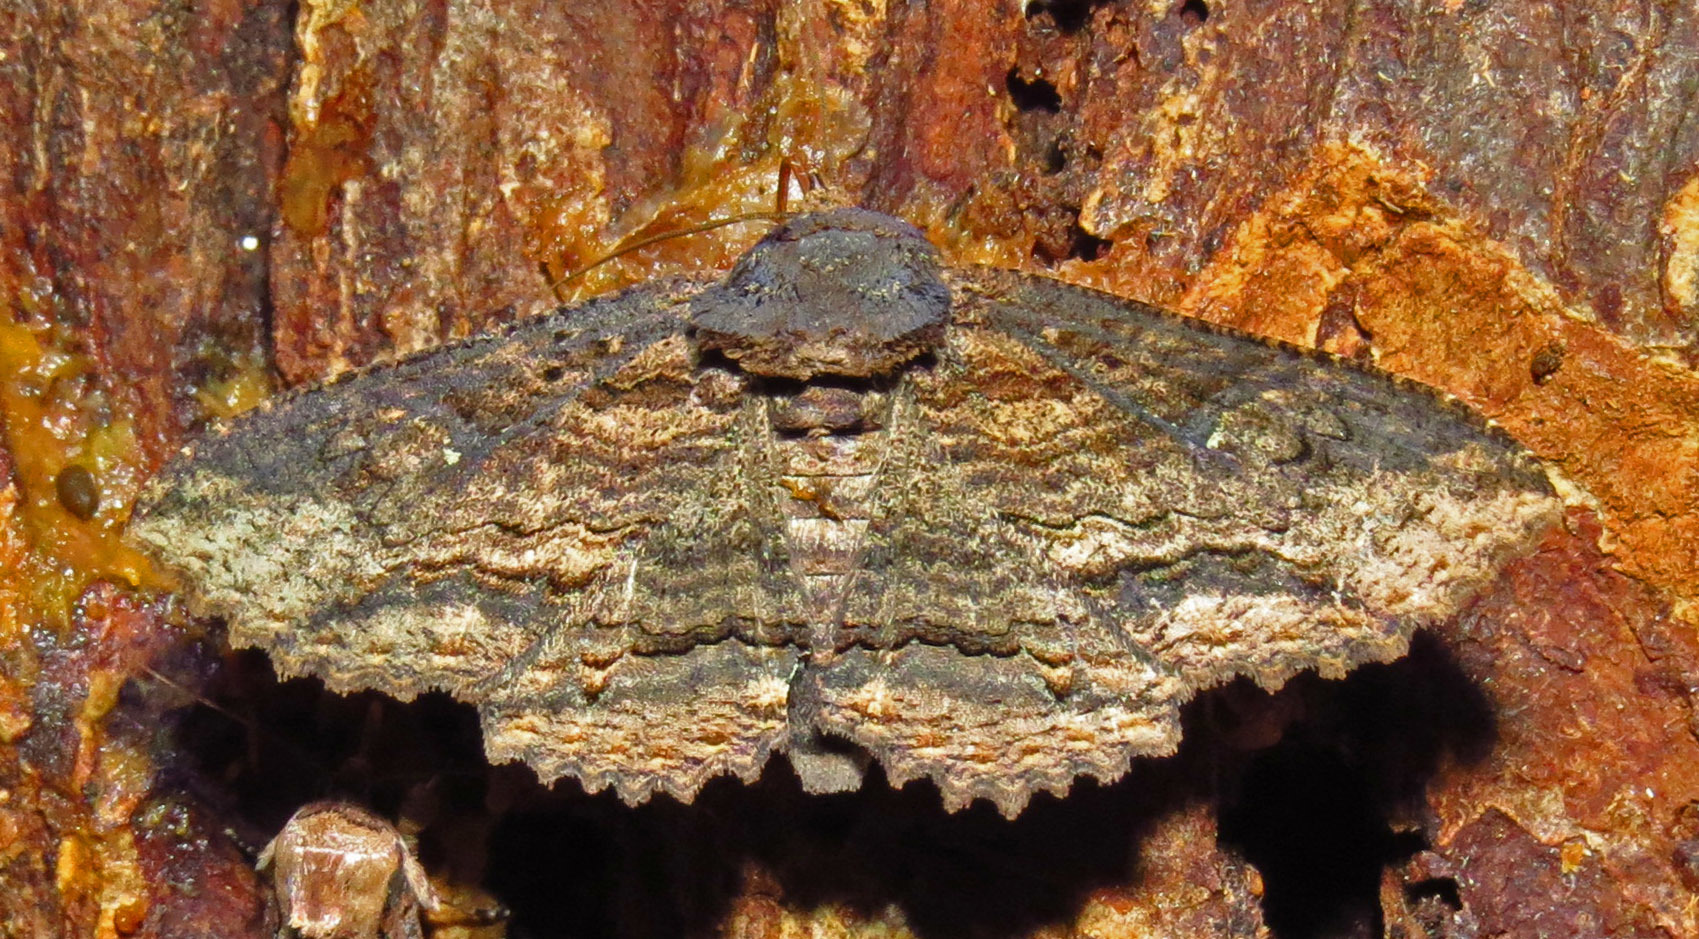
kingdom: Animalia
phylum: Arthropoda
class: Insecta
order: Lepidoptera
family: Erebidae
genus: Zale
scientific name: Zale lunata
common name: Lunate zale moth
